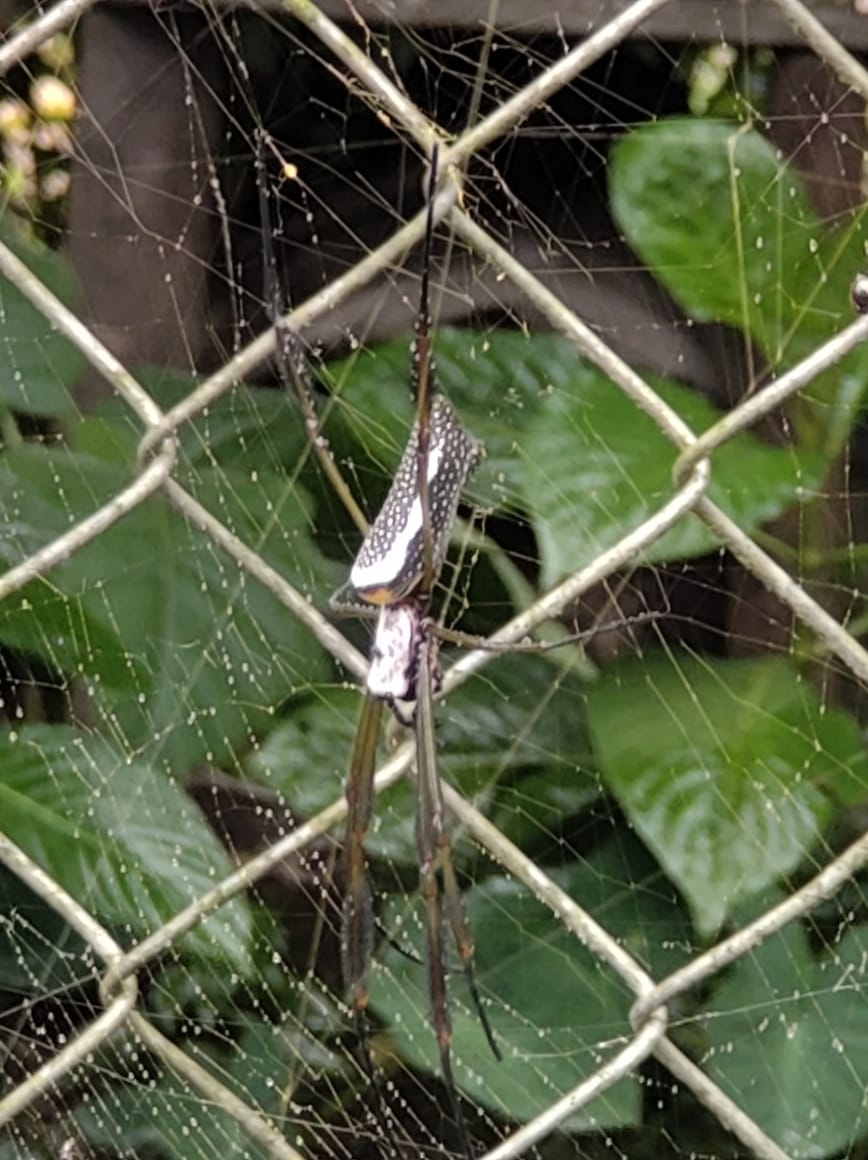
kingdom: Animalia
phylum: Arthropoda
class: Arachnida
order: Araneae
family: Araneidae
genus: Trichonephila
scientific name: Trichonephila clavipes
